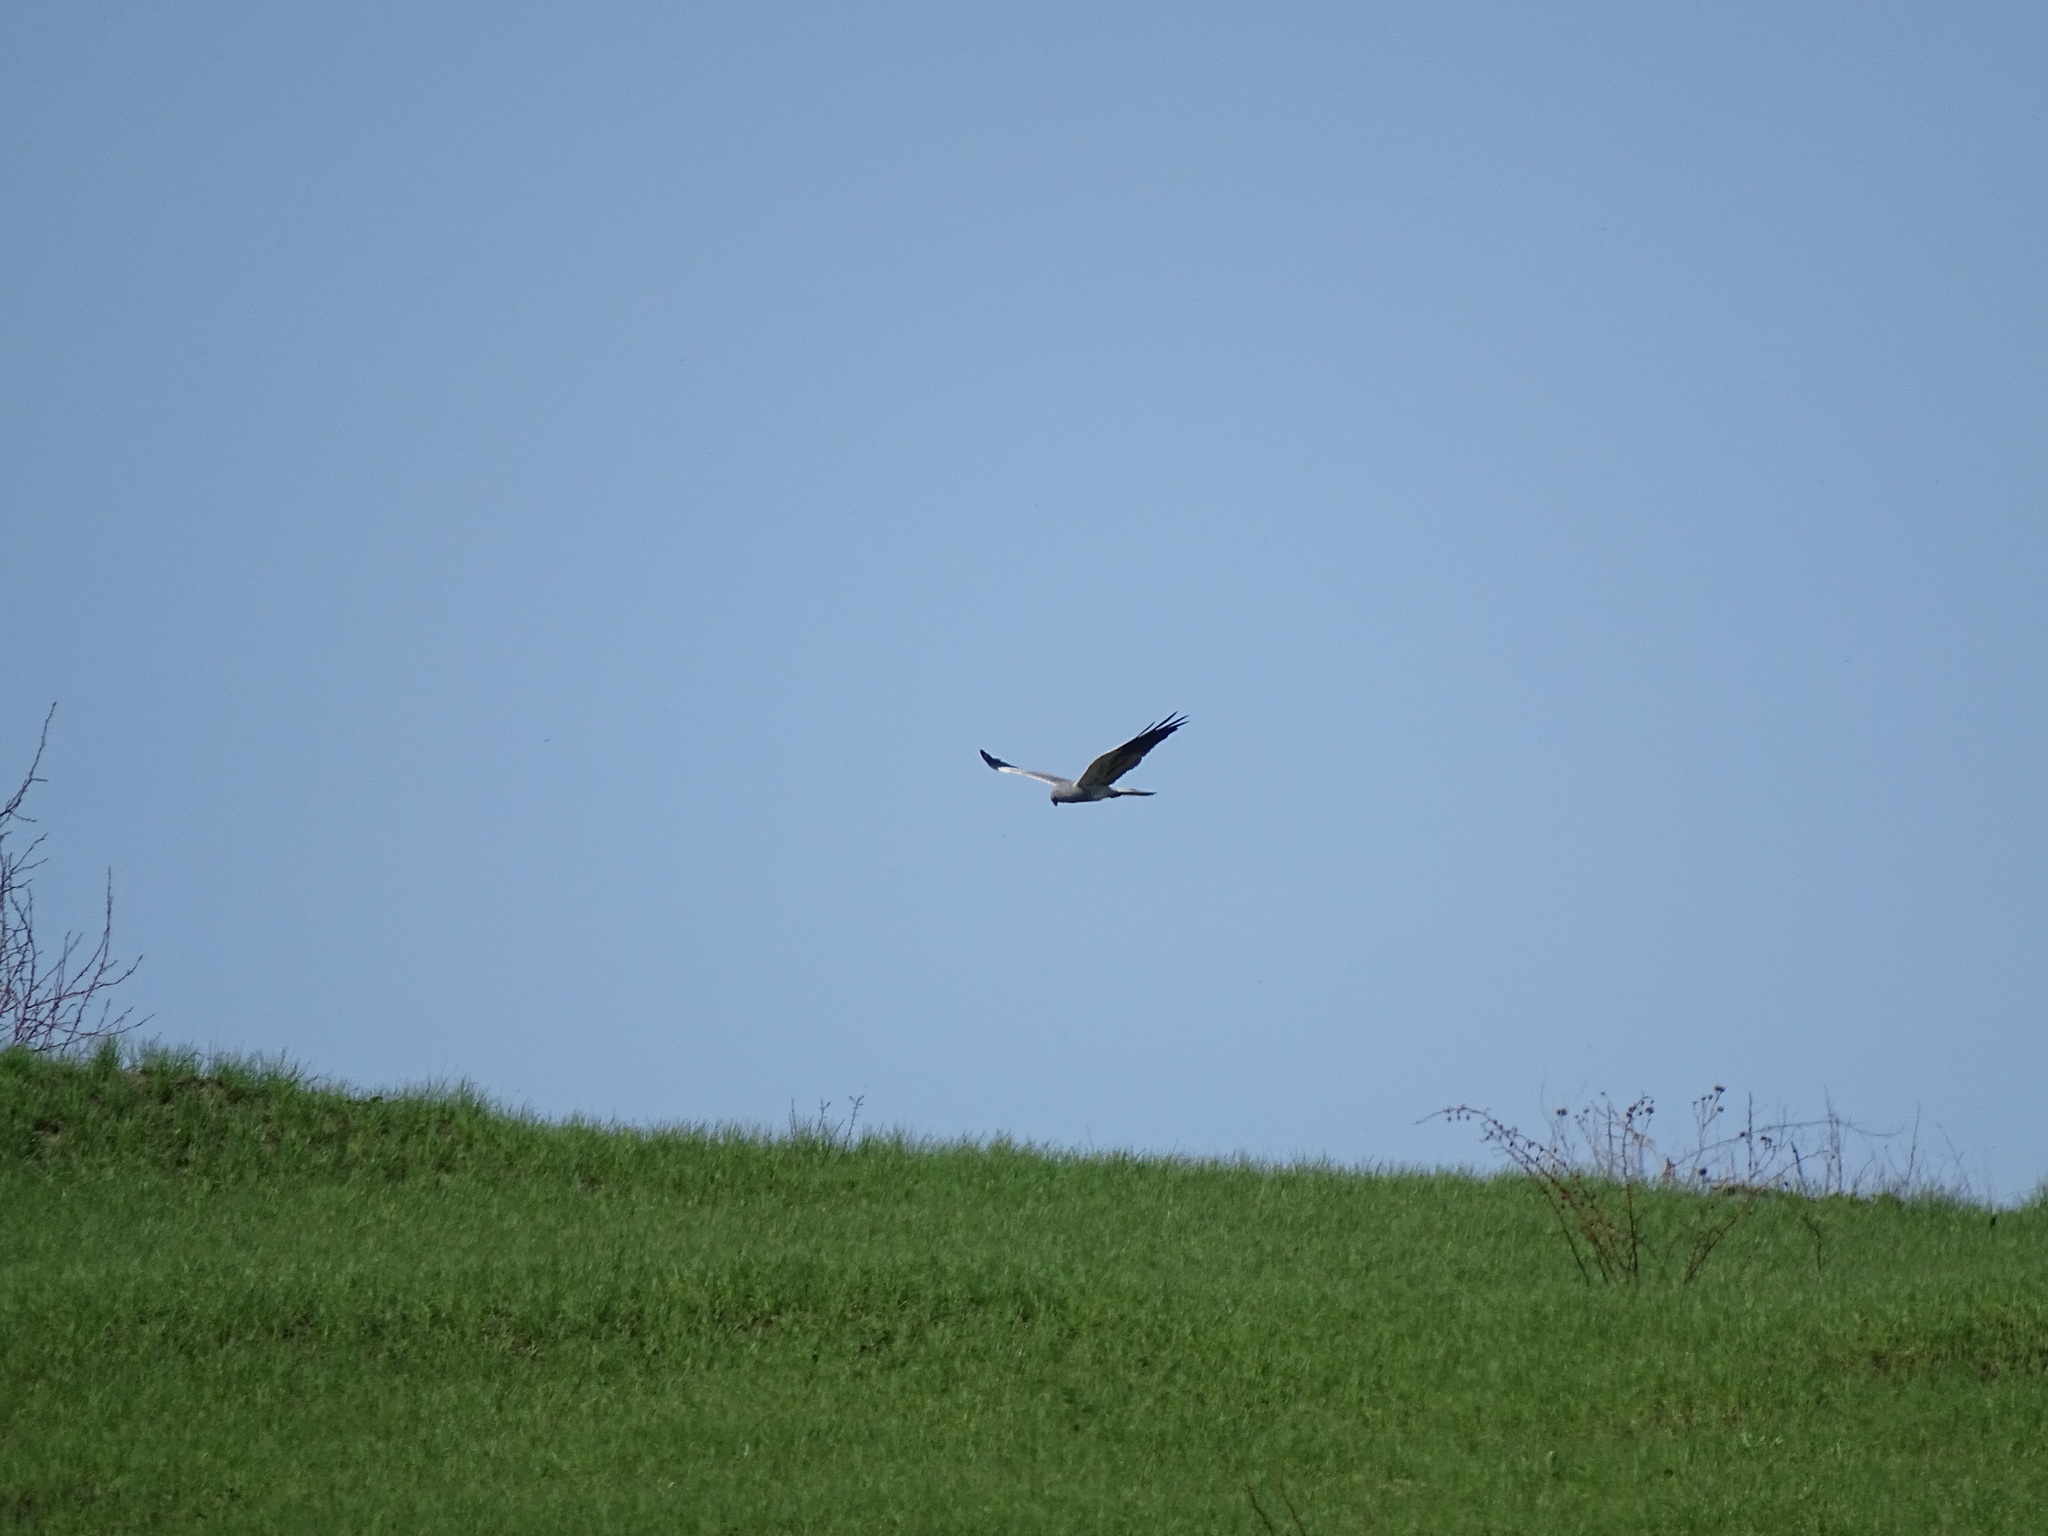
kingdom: Animalia
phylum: Chordata
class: Aves
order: Accipitriformes
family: Accipitridae
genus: Circus
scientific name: Circus pygargus
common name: Montagu's harrier
